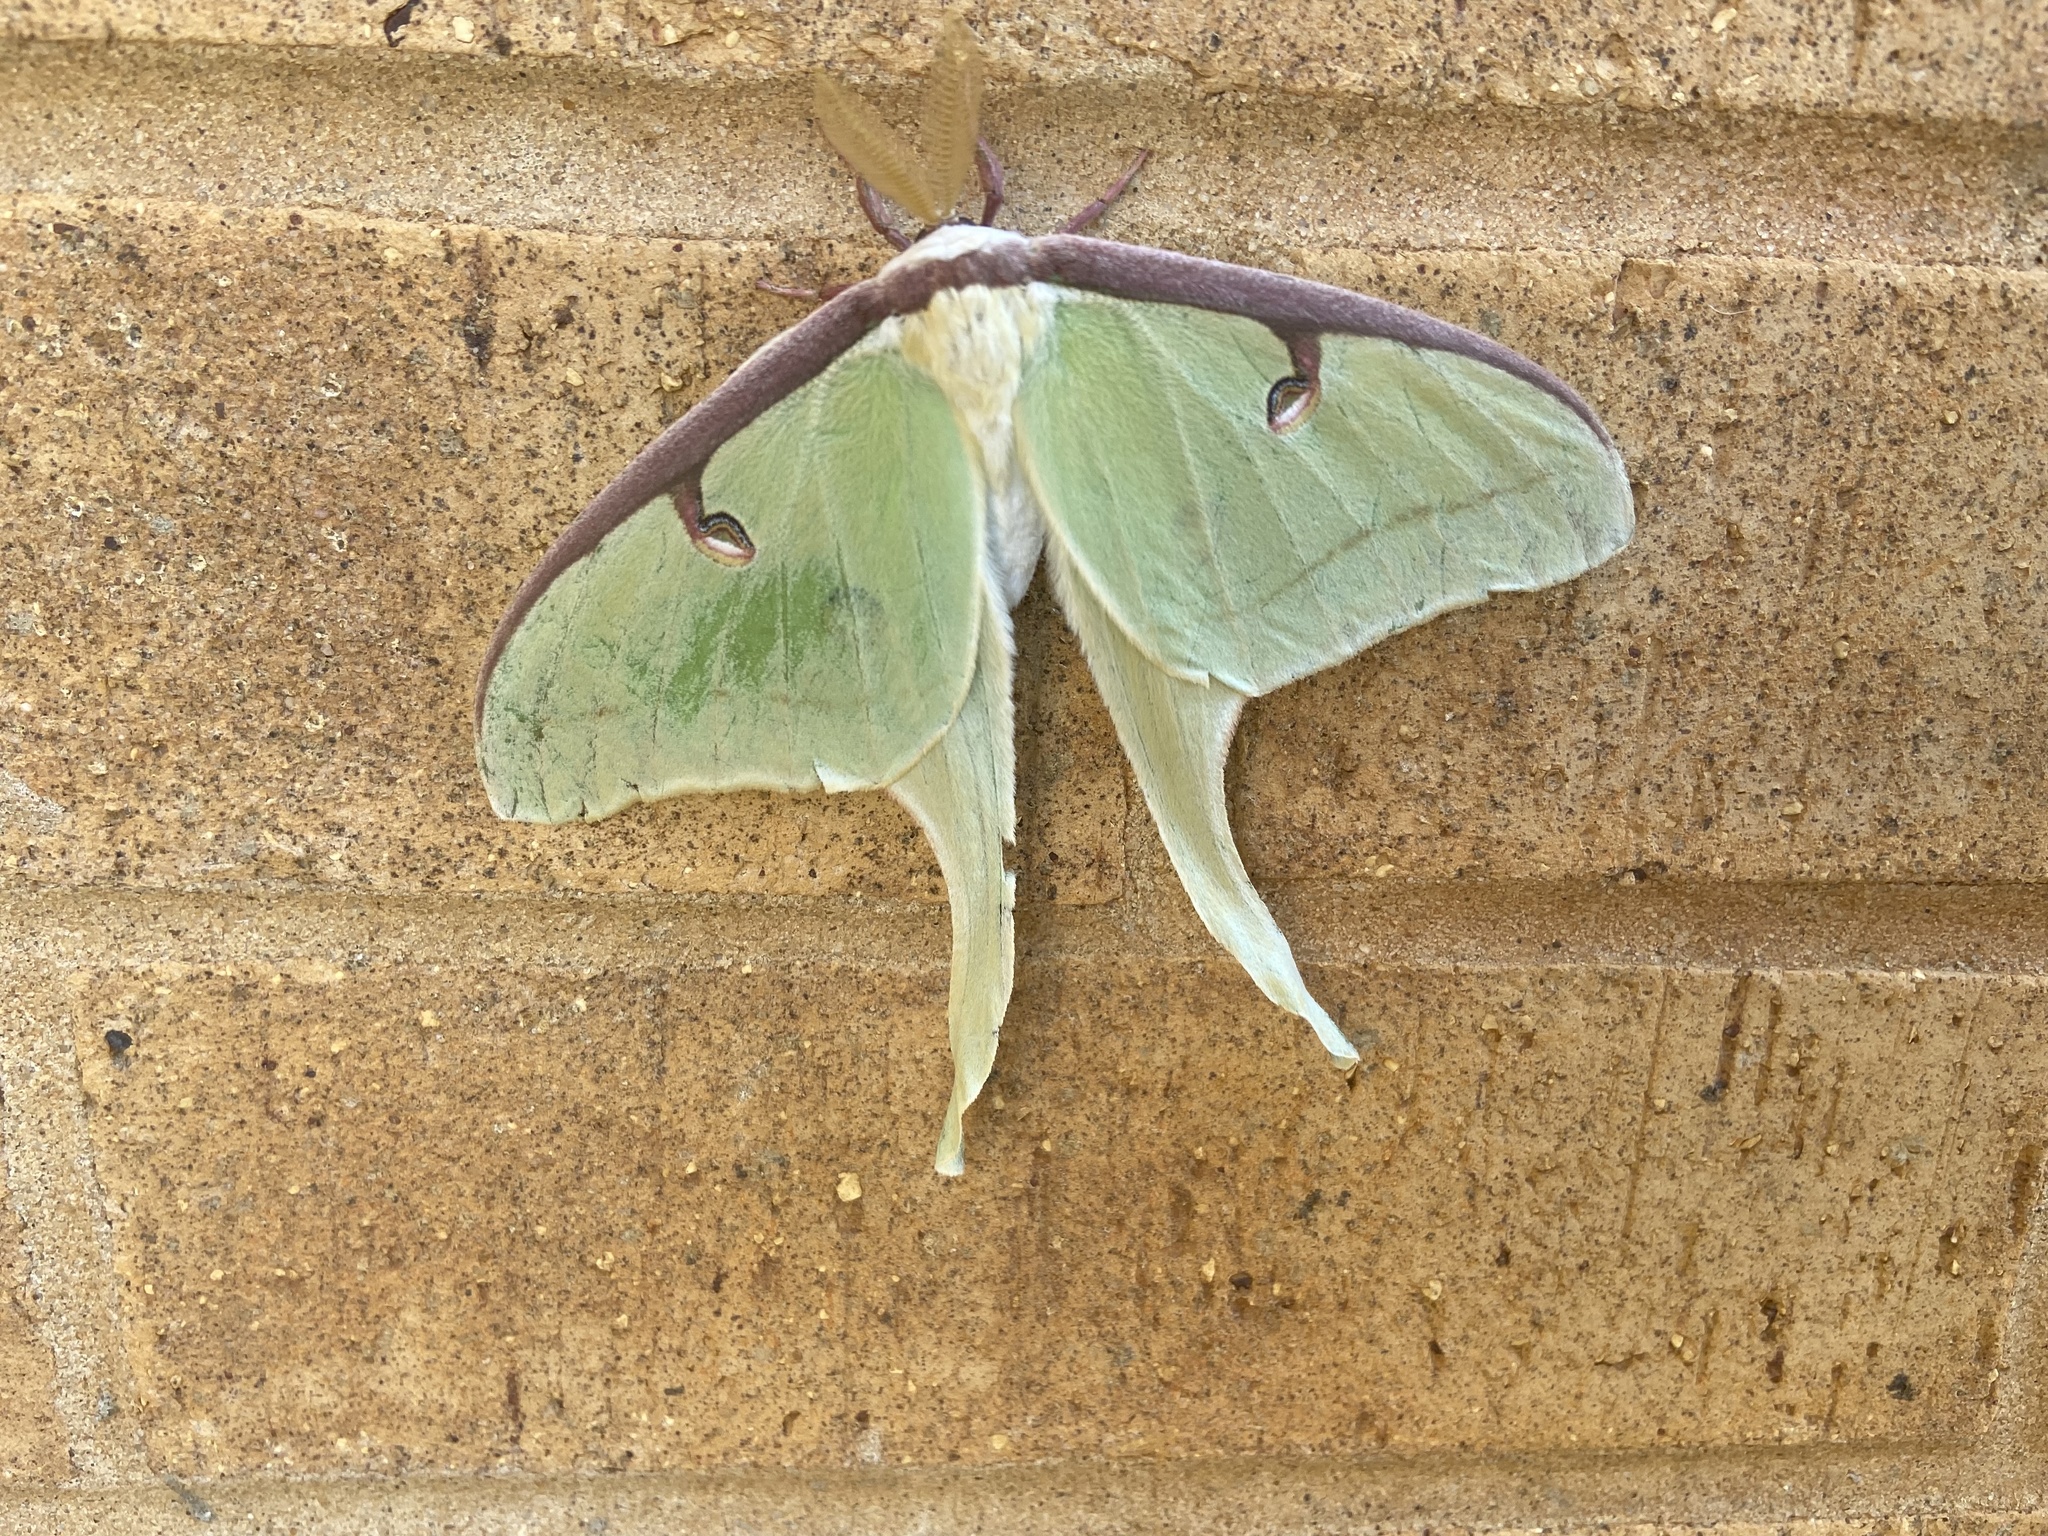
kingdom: Animalia
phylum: Arthropoda
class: Insecta
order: Lepidoptera
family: Saturniidae
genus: Actias
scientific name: Actias luna
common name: Luna moth
